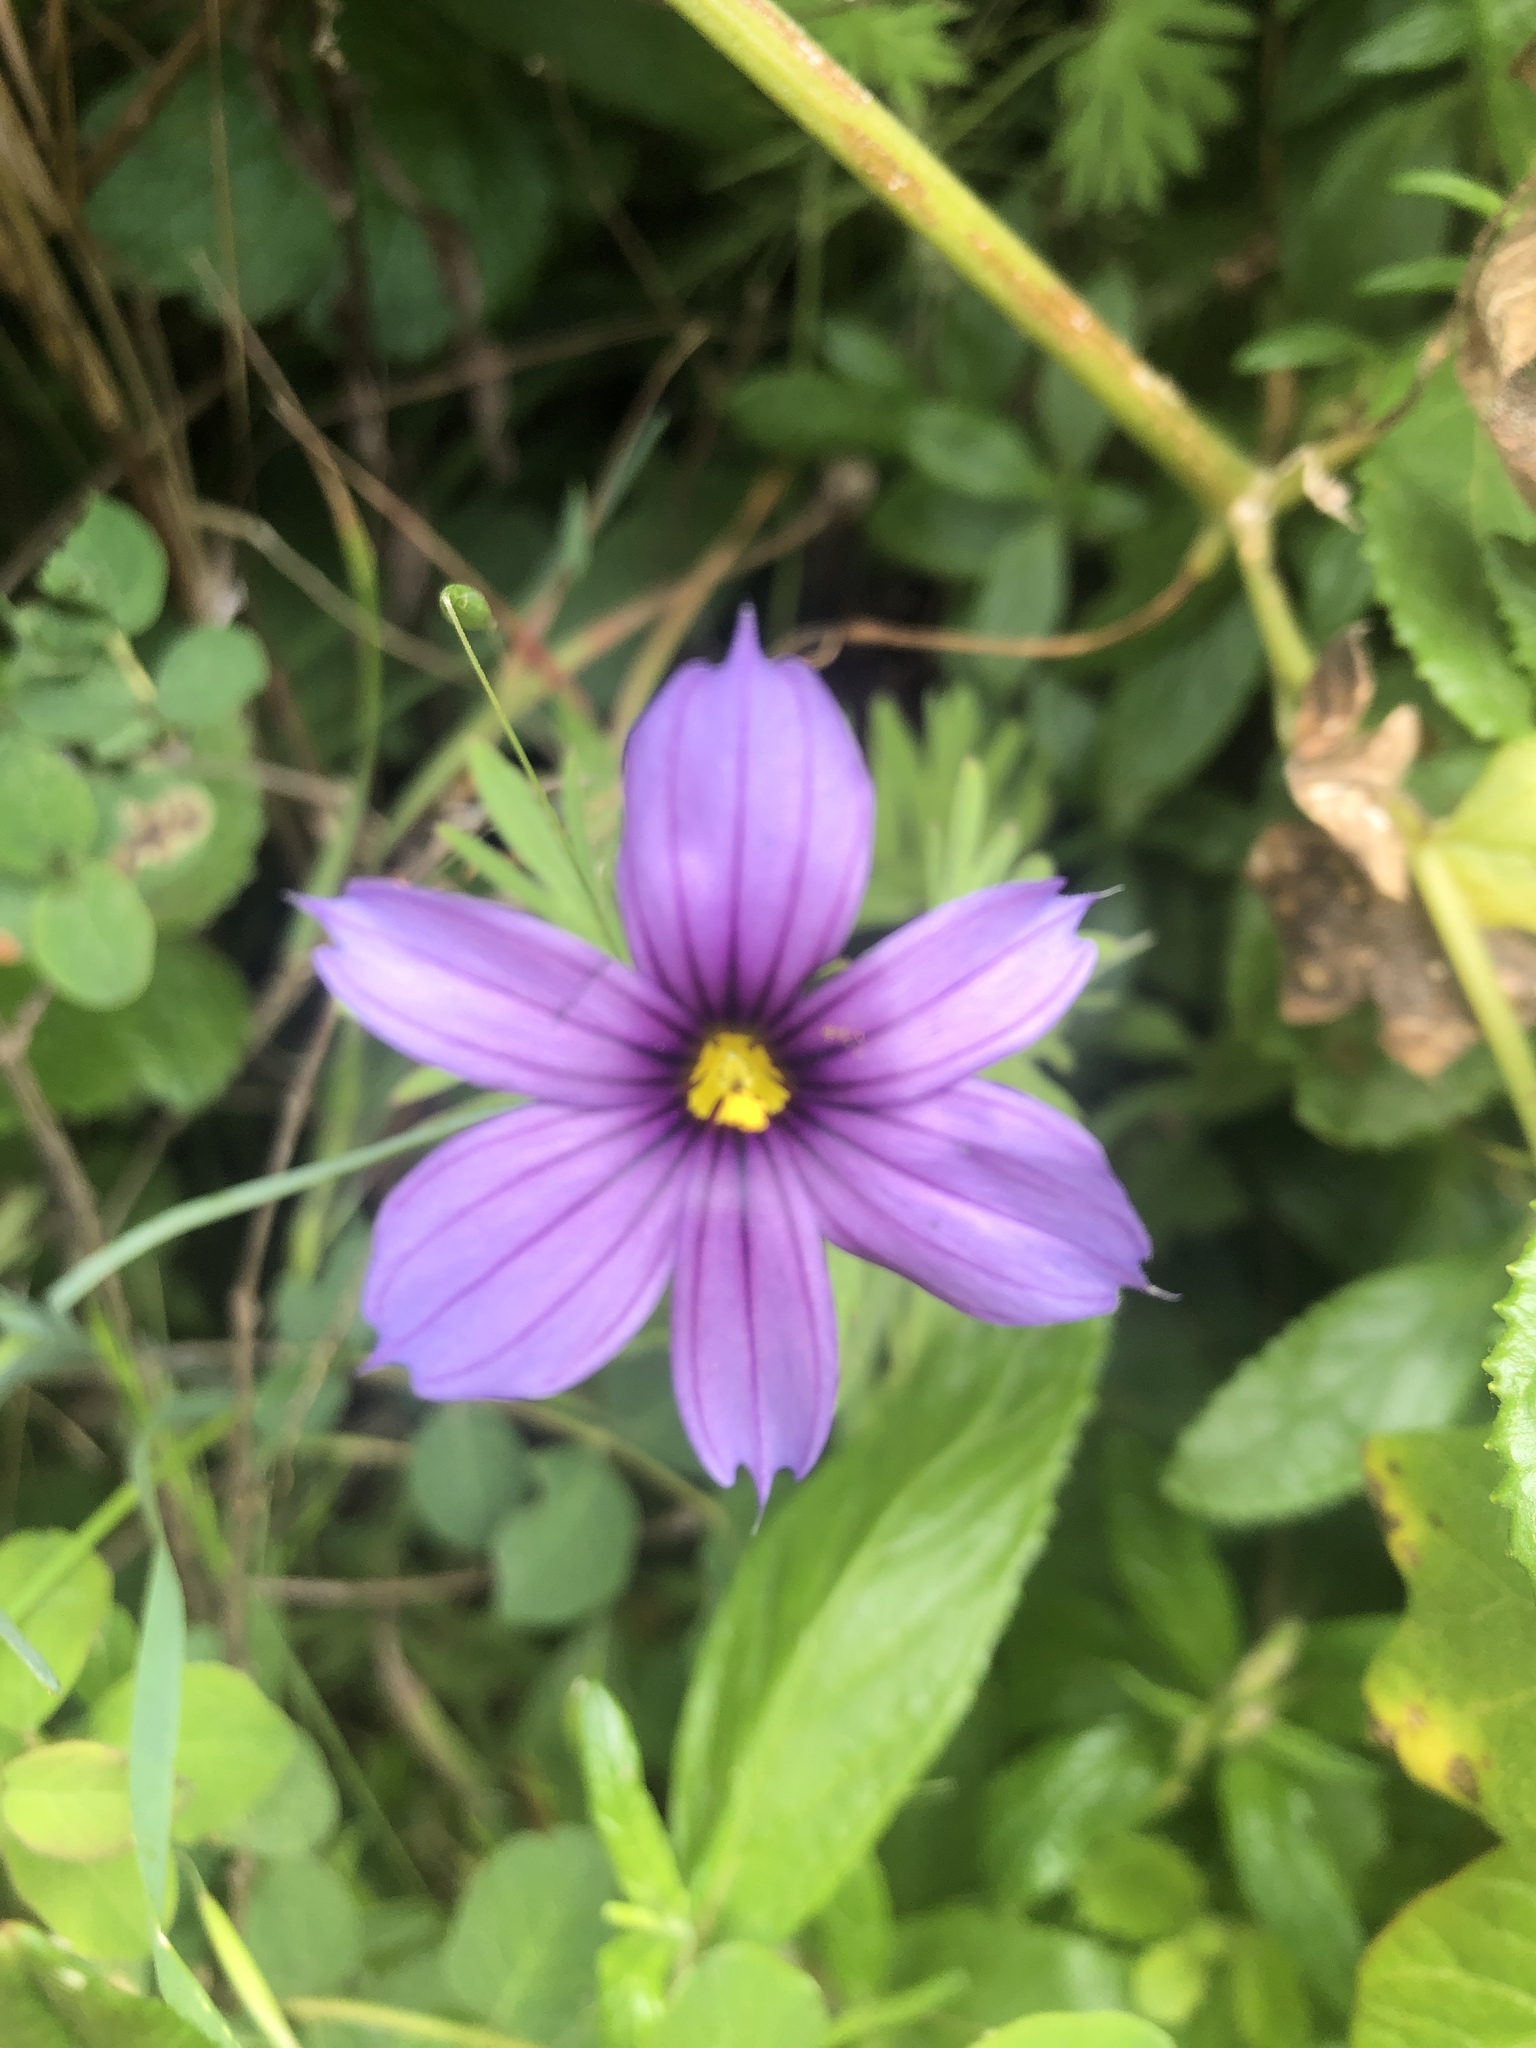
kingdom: Plantae
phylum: Tracheophyta
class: Liliopsida
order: Asparagales
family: Iridaceae
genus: Sisyrinchium
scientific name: Sisyrinchium bellum
